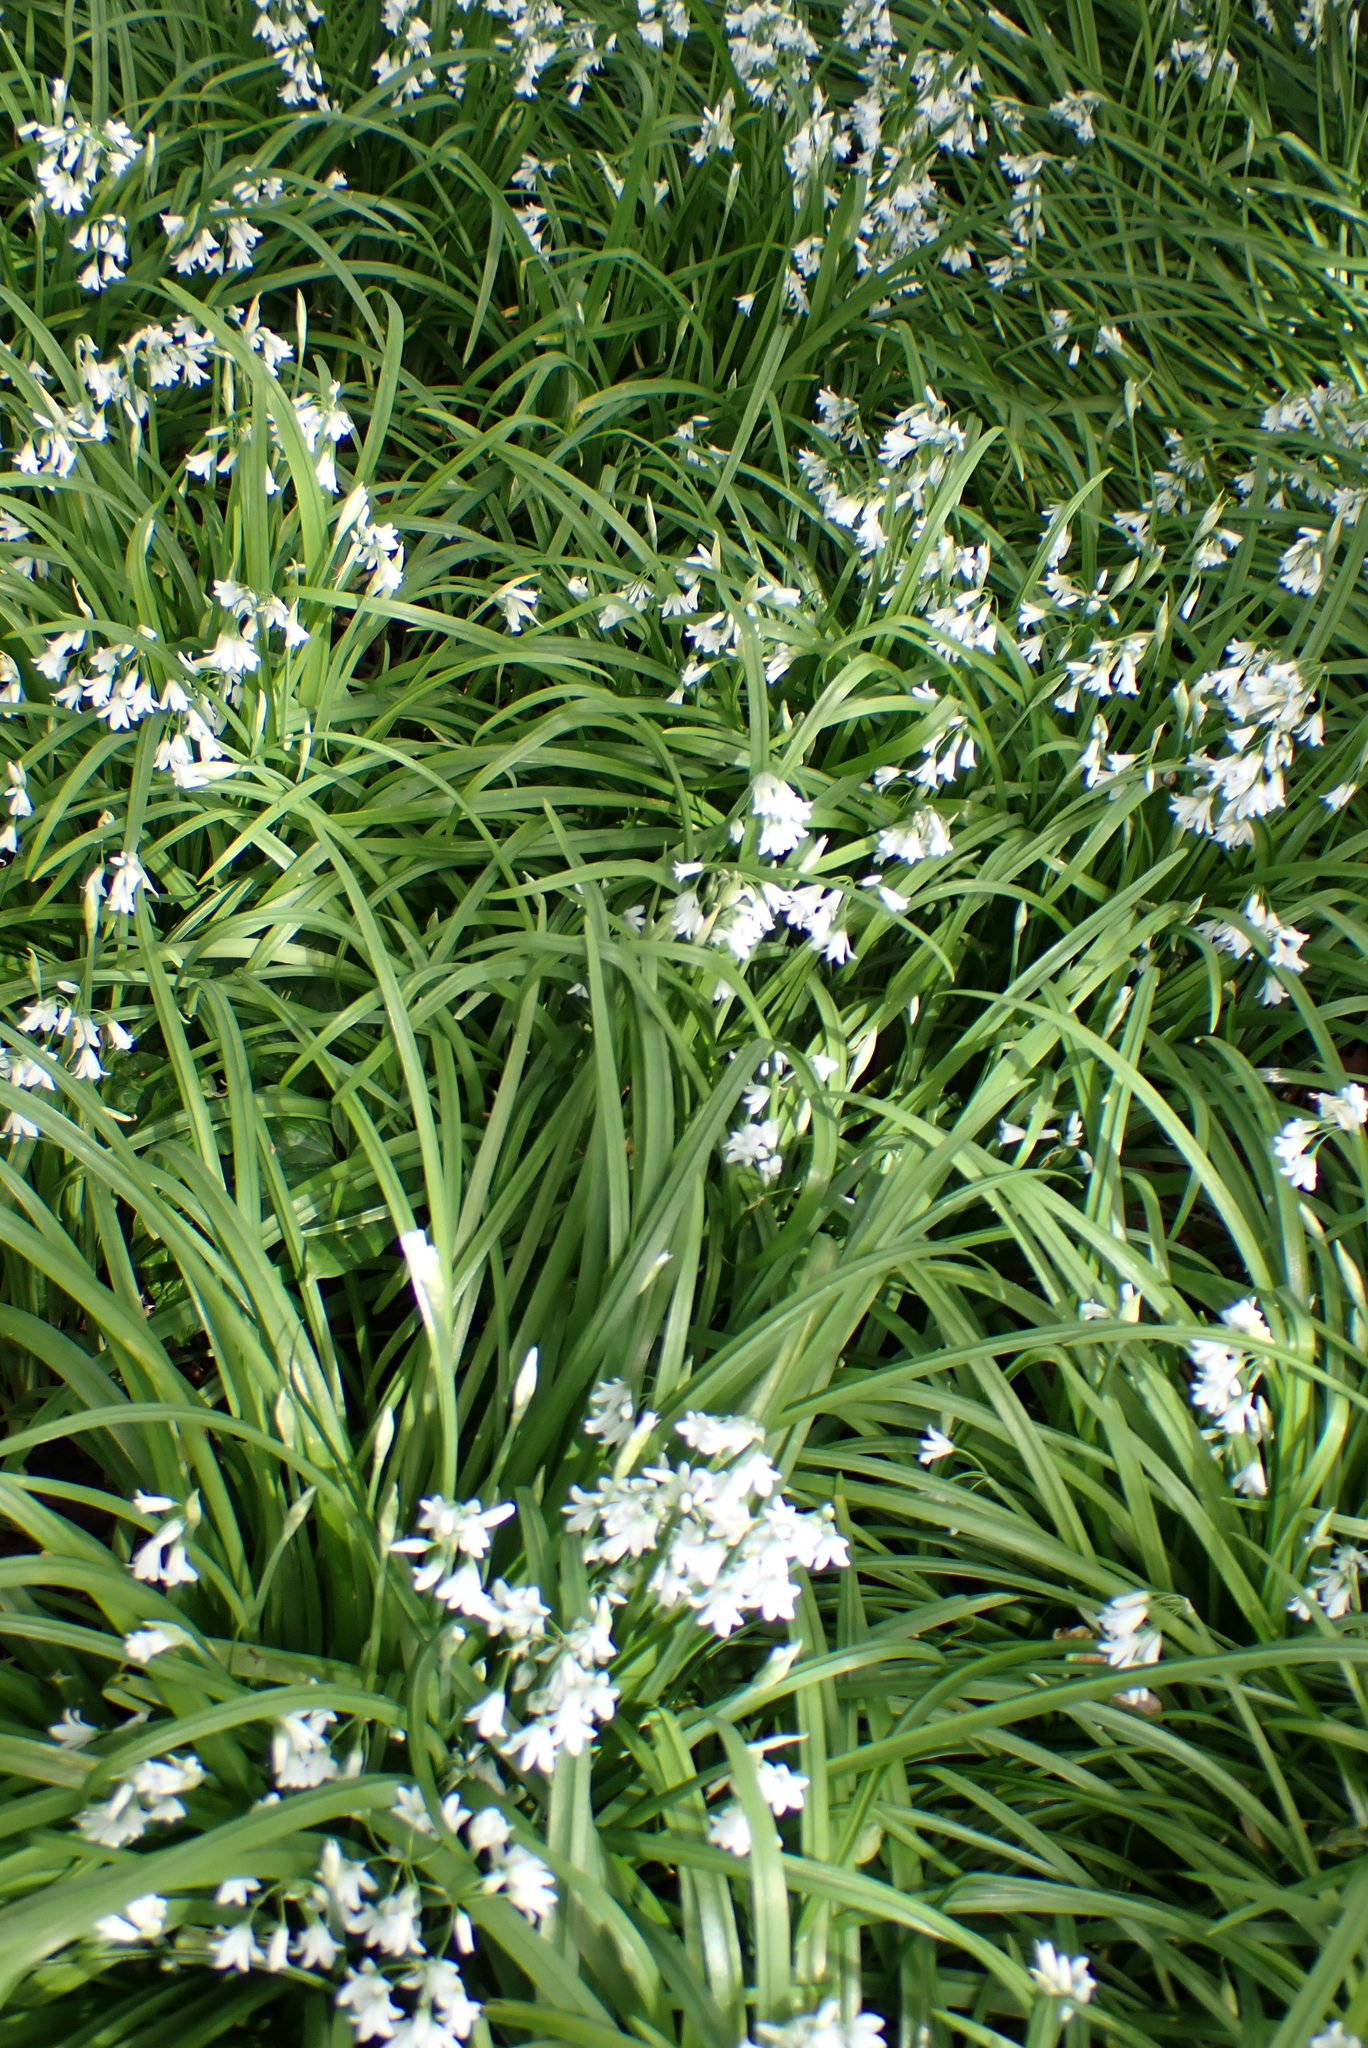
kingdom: Plantae
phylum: Tracheophyta
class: Liliopsida
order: Asparagales
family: Amaryllidaceae
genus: Allium
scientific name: Allium triquetrum
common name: Three-cornered garlic
